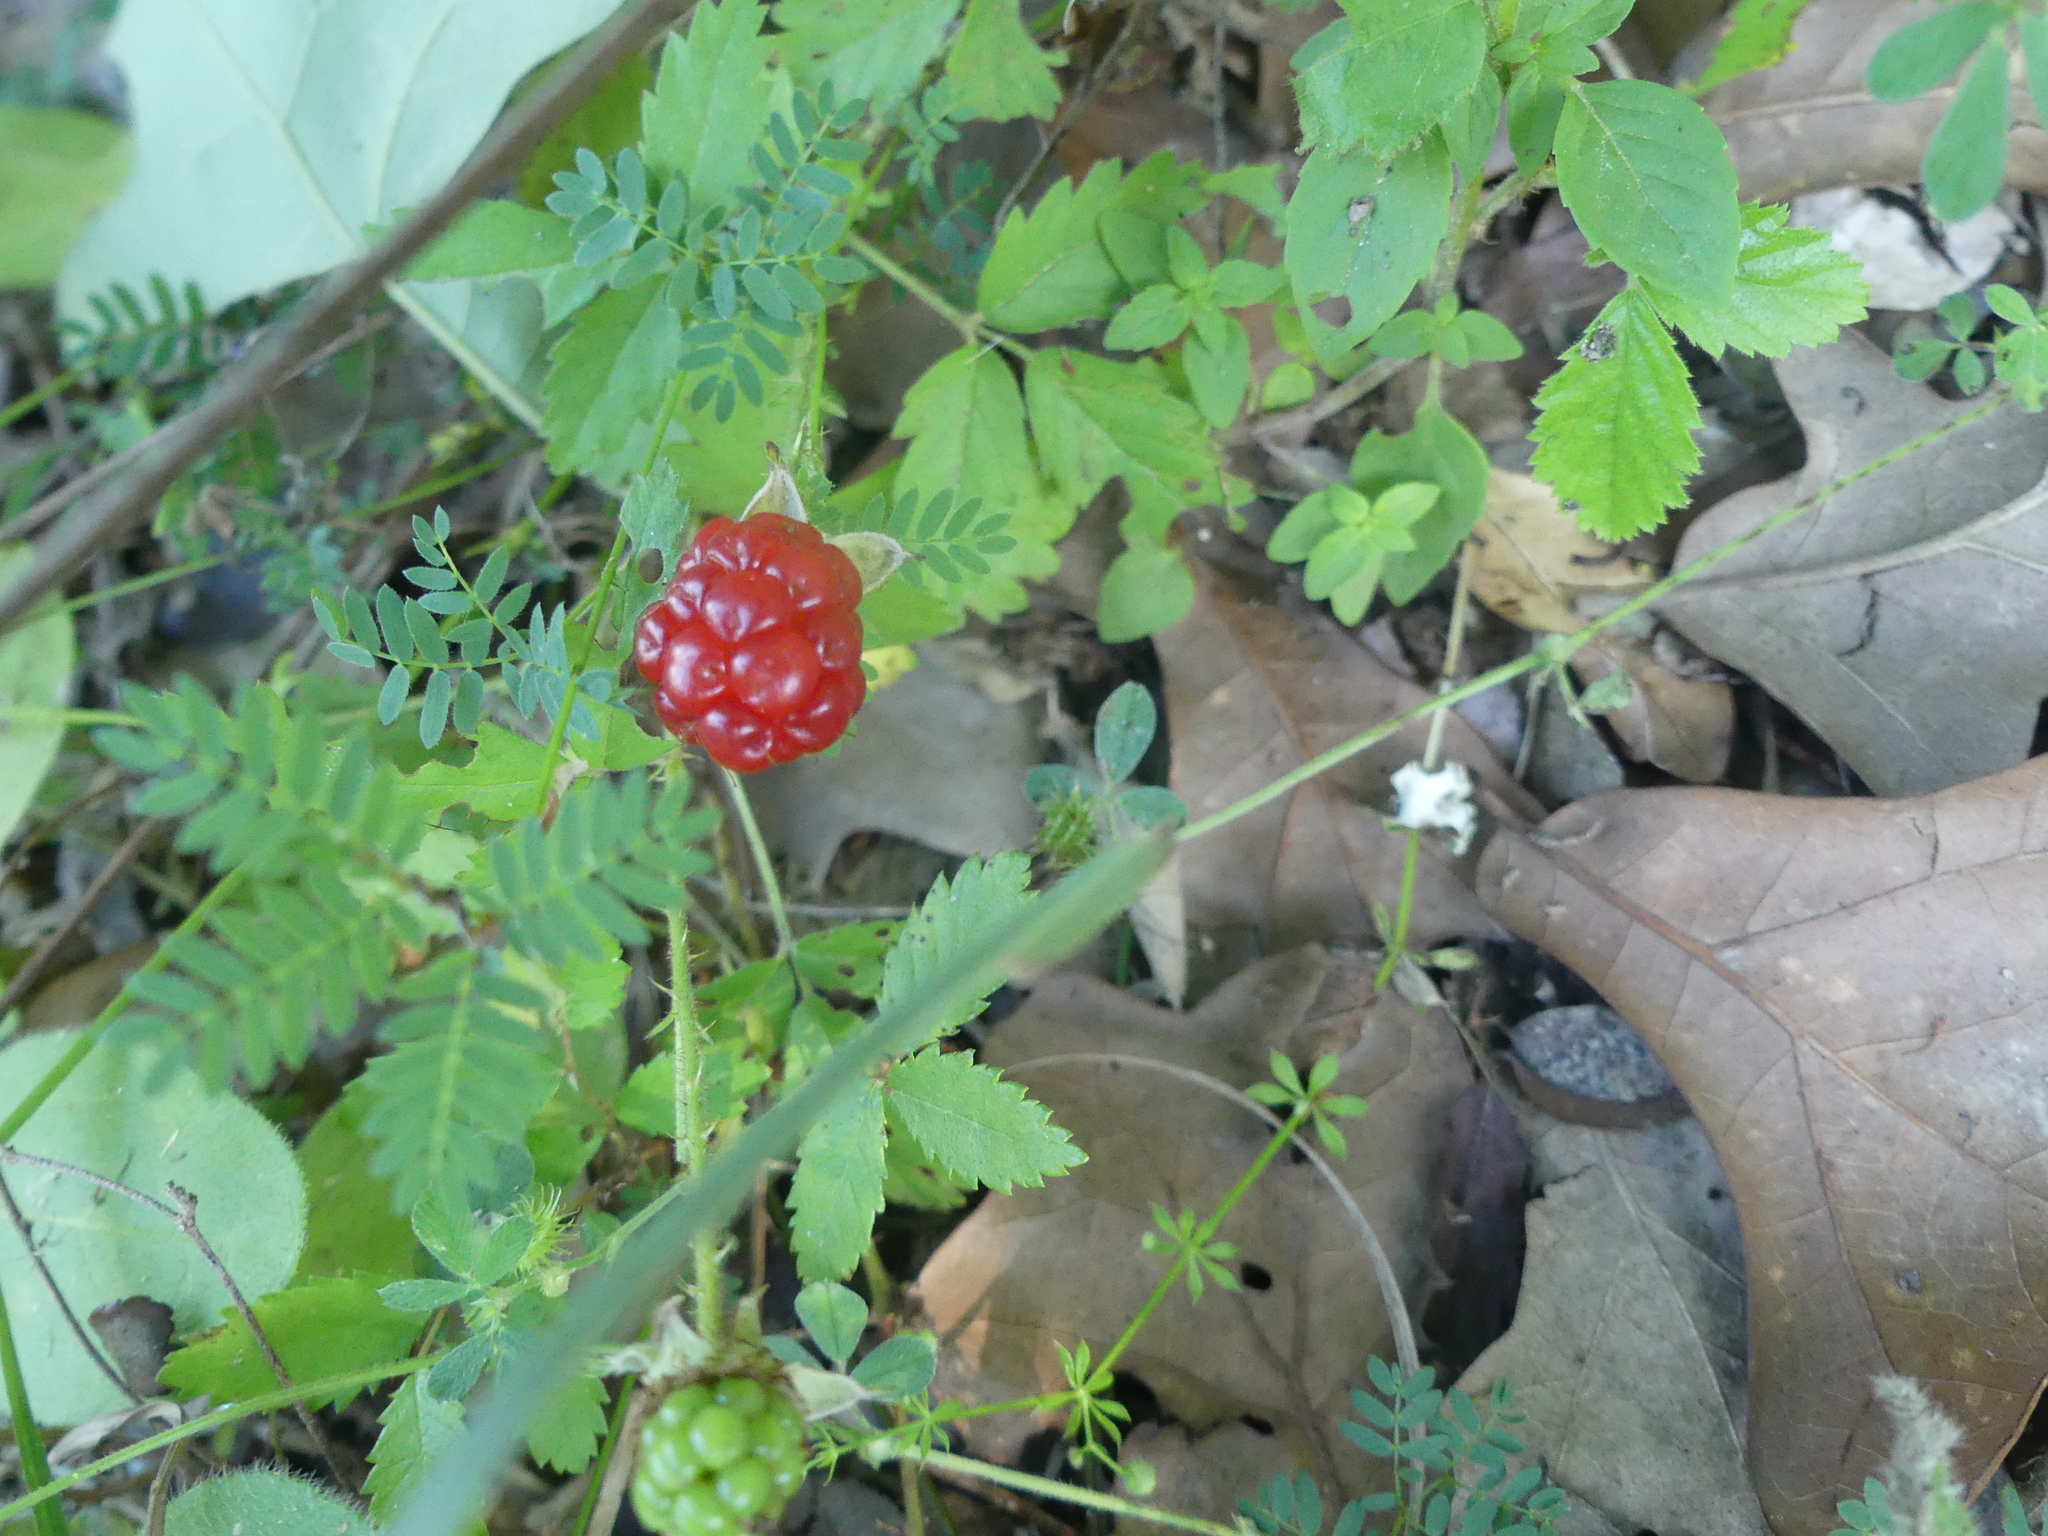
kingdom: Plantae
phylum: Tracheophyta
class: Magnoliopsida
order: Rosales
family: Rosaceae
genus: Rubus
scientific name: Rubus trivialis
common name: Southern dewberry
